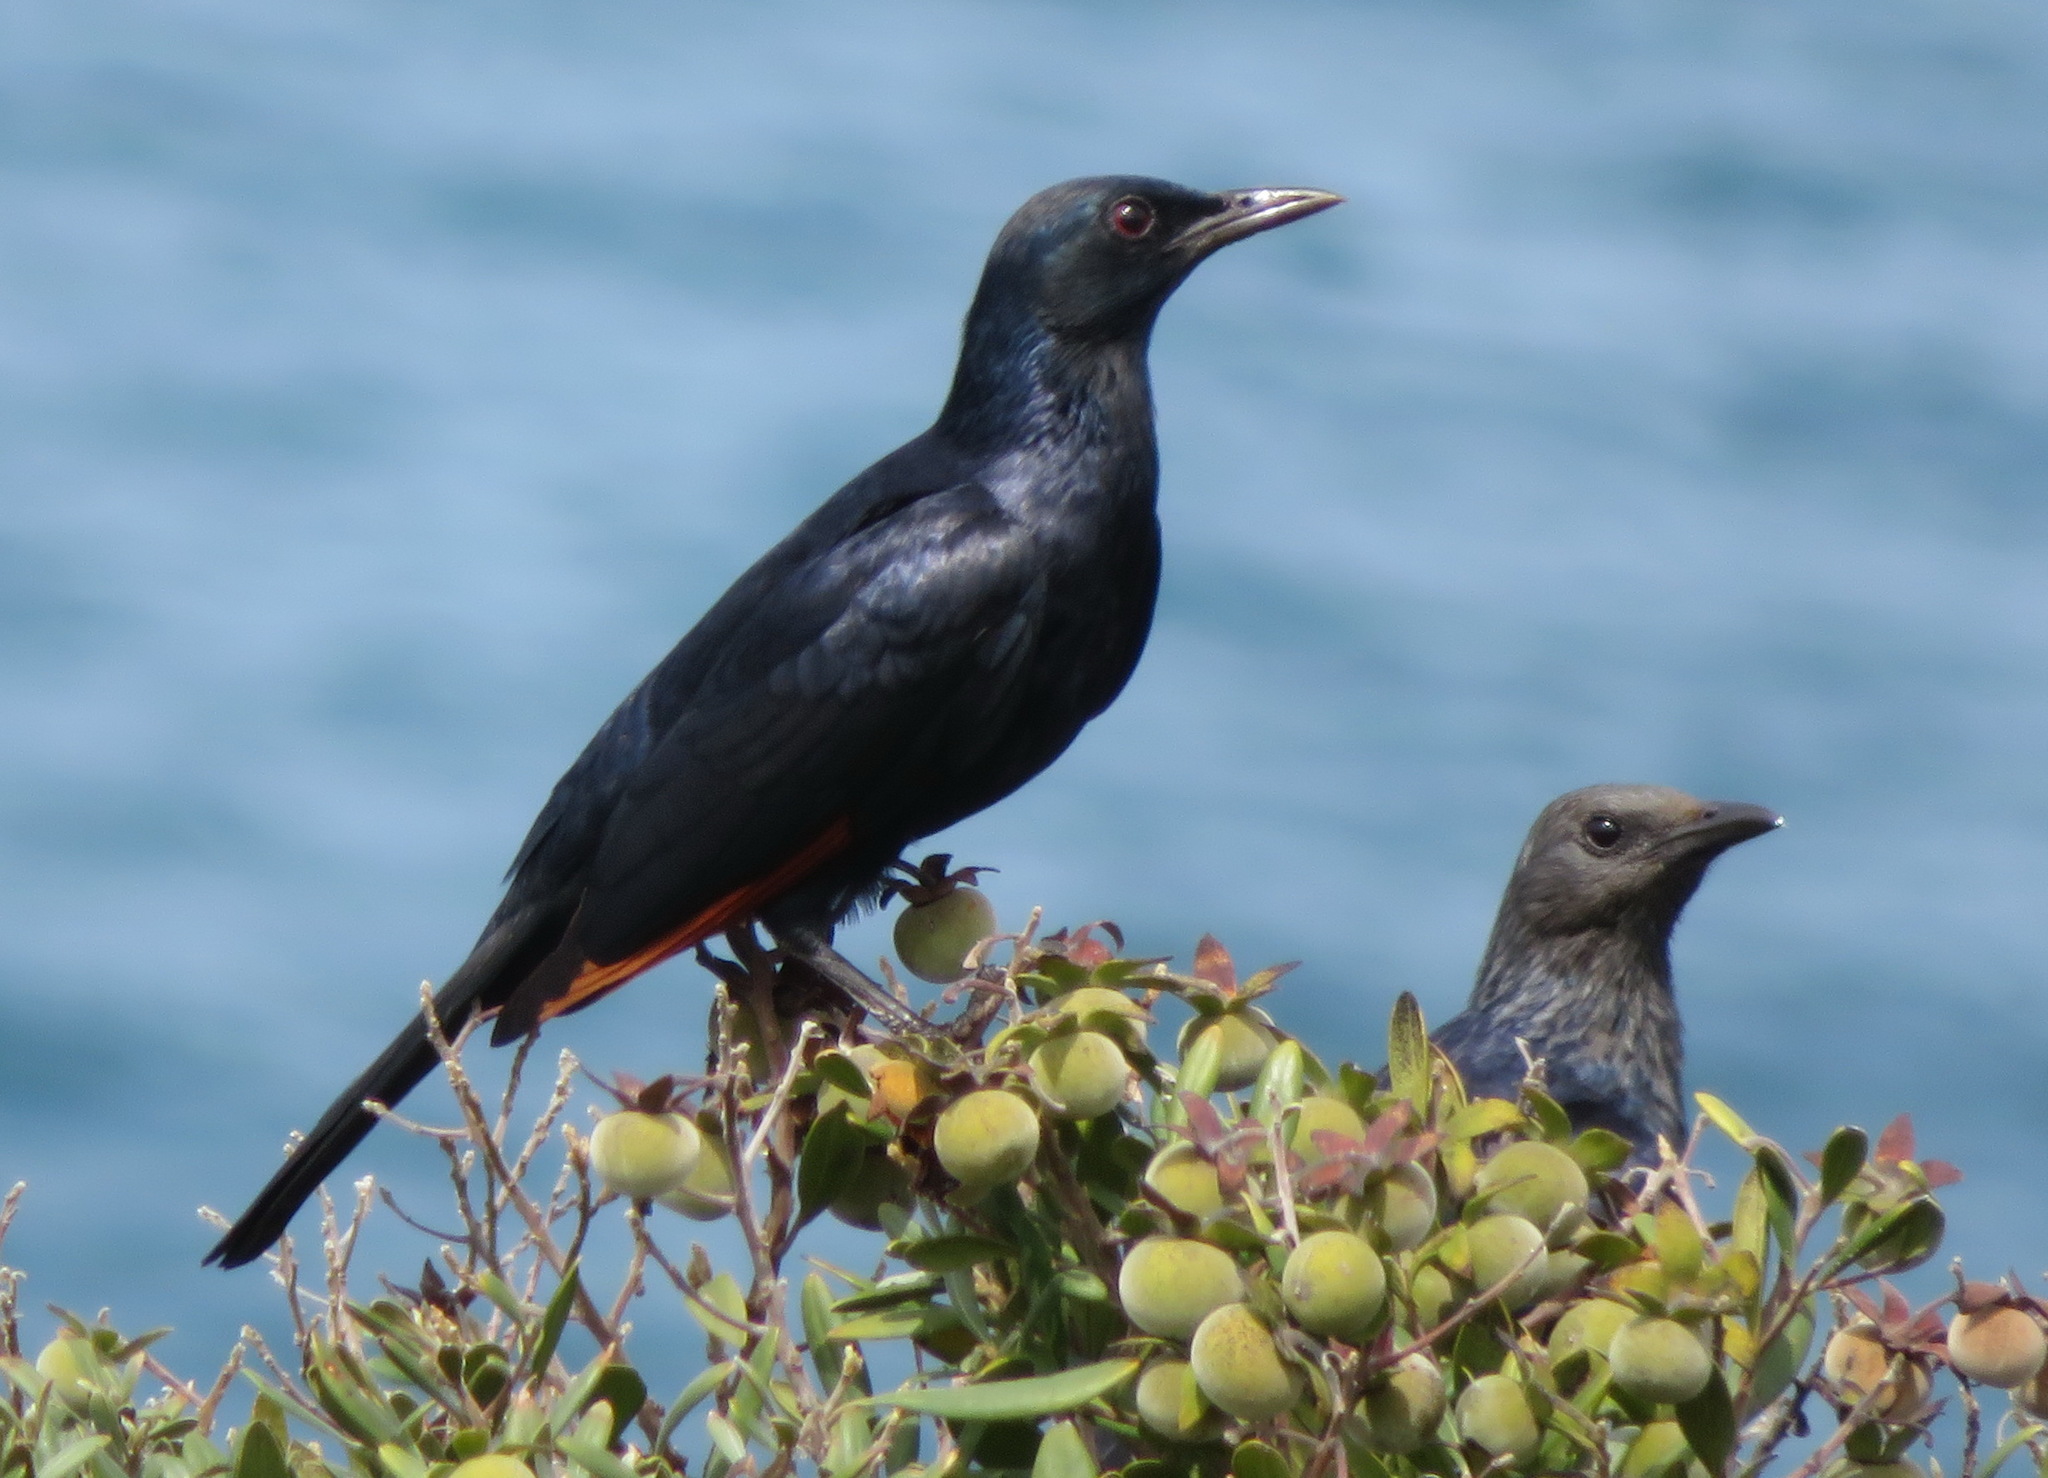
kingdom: Animalia
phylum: Chordata
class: Aves
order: Passeriformes
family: Sturnidae
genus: Onychognathus
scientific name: Onychognathus morio
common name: Red-winged starling
